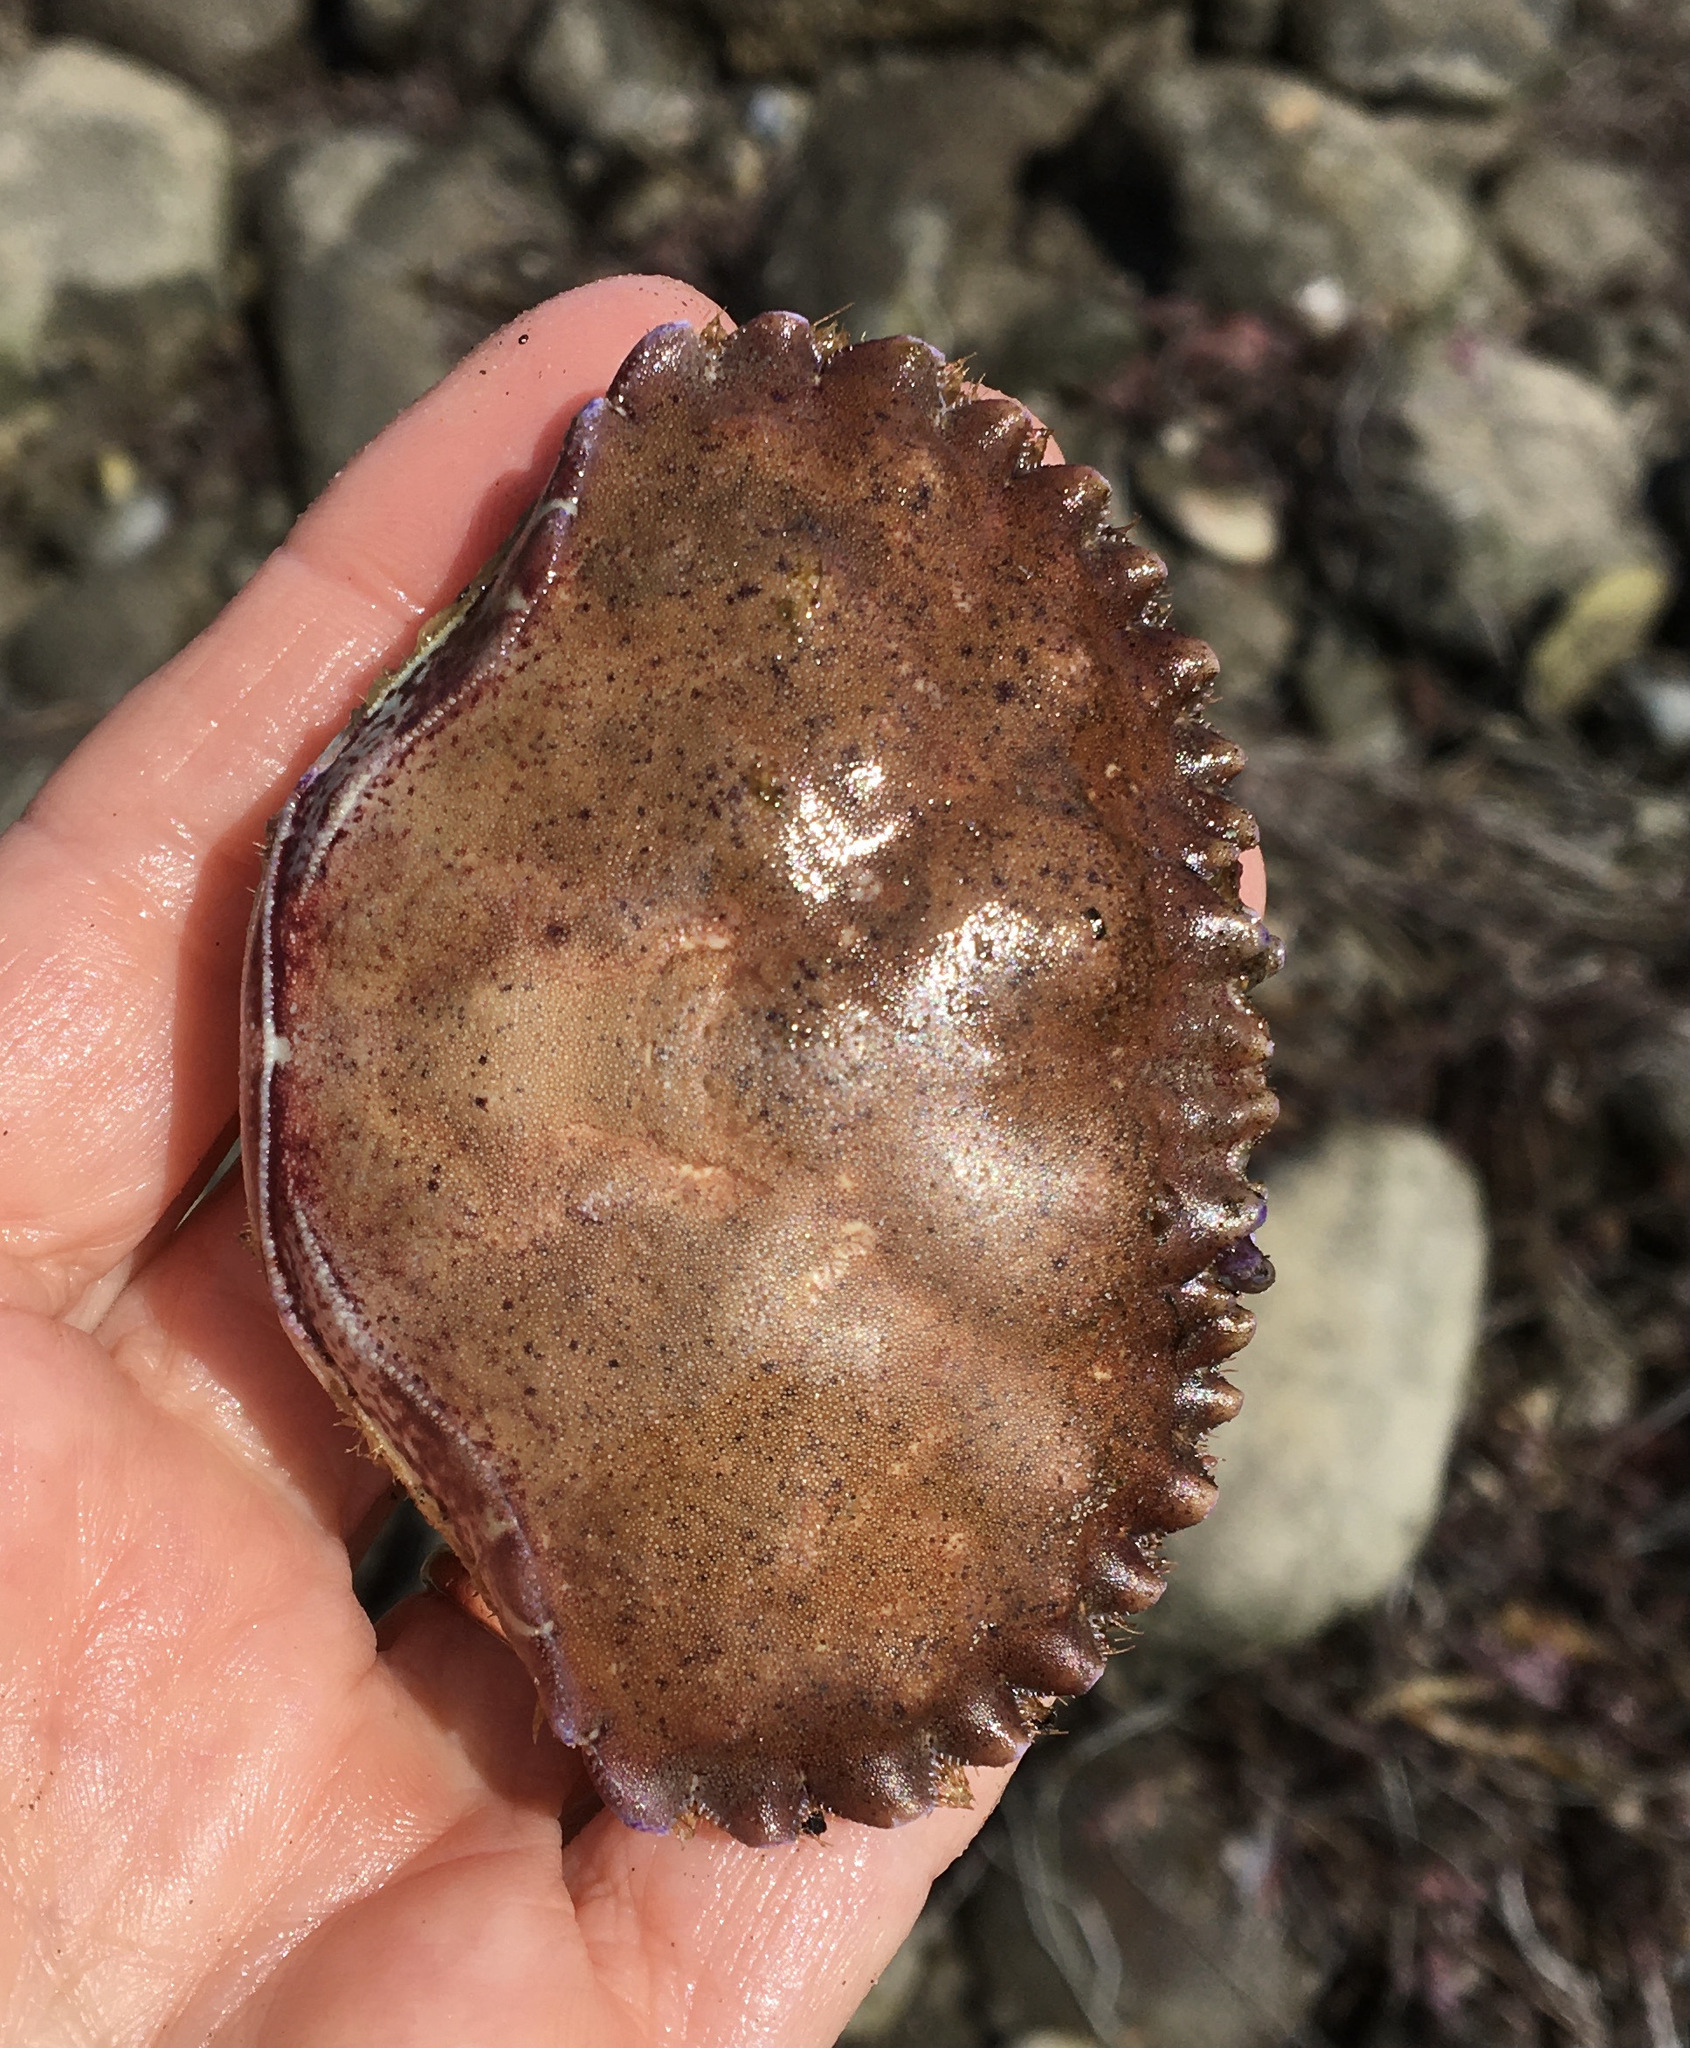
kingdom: Animalia
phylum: Arthropoda
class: Malacostraca
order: Decapoda
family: Cancridae
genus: Romaleon
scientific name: Romaleon antennarium
